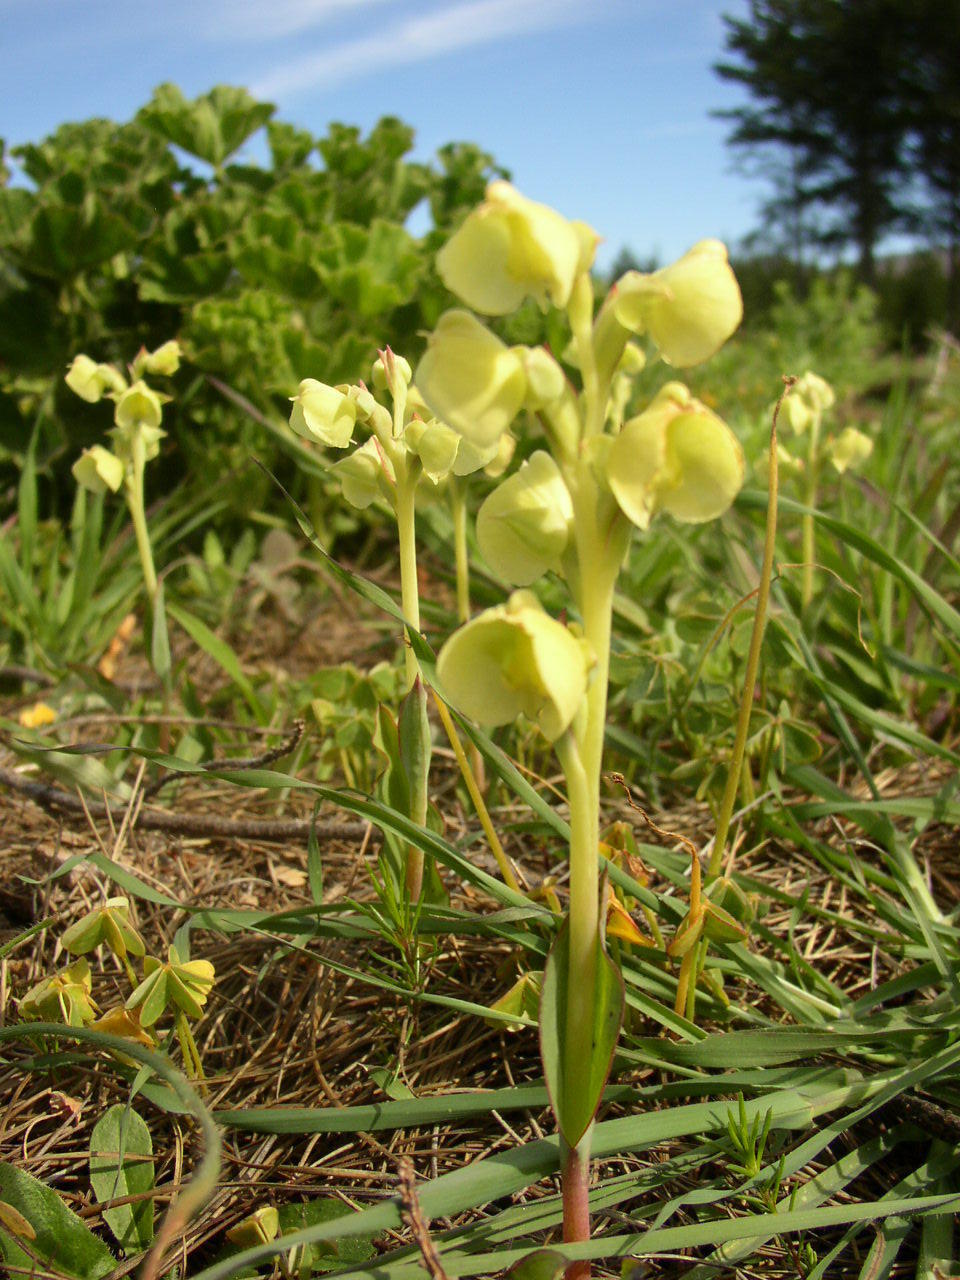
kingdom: Plantae
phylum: Tracheophyta
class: Liliopsida
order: Asparagales
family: Orchidaceae
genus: Pterygodium
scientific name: Pterygodium catholicum
